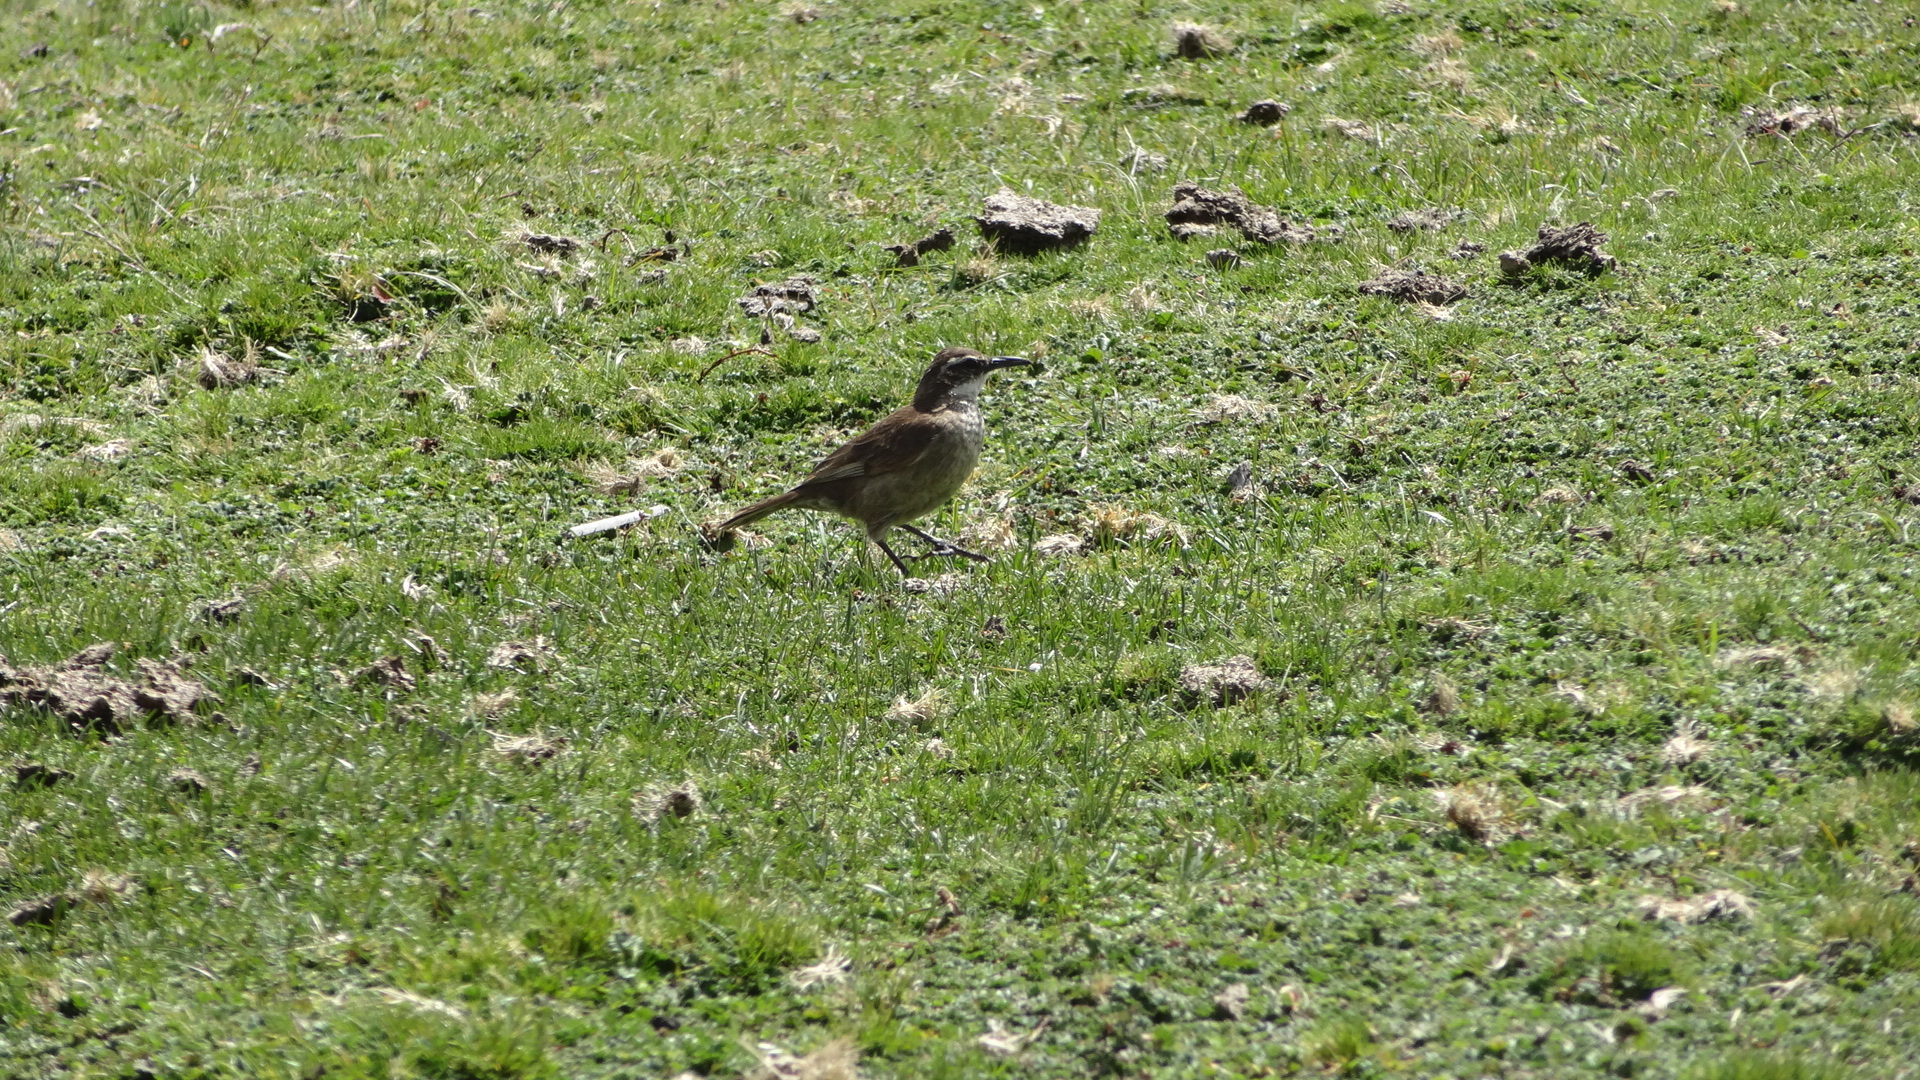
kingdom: Animalia
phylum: Chordata
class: Aves
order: Passeriformes
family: Furnariidae
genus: Cinclodes
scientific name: Cinclodes excelsior
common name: Stout-billed cinclodes
